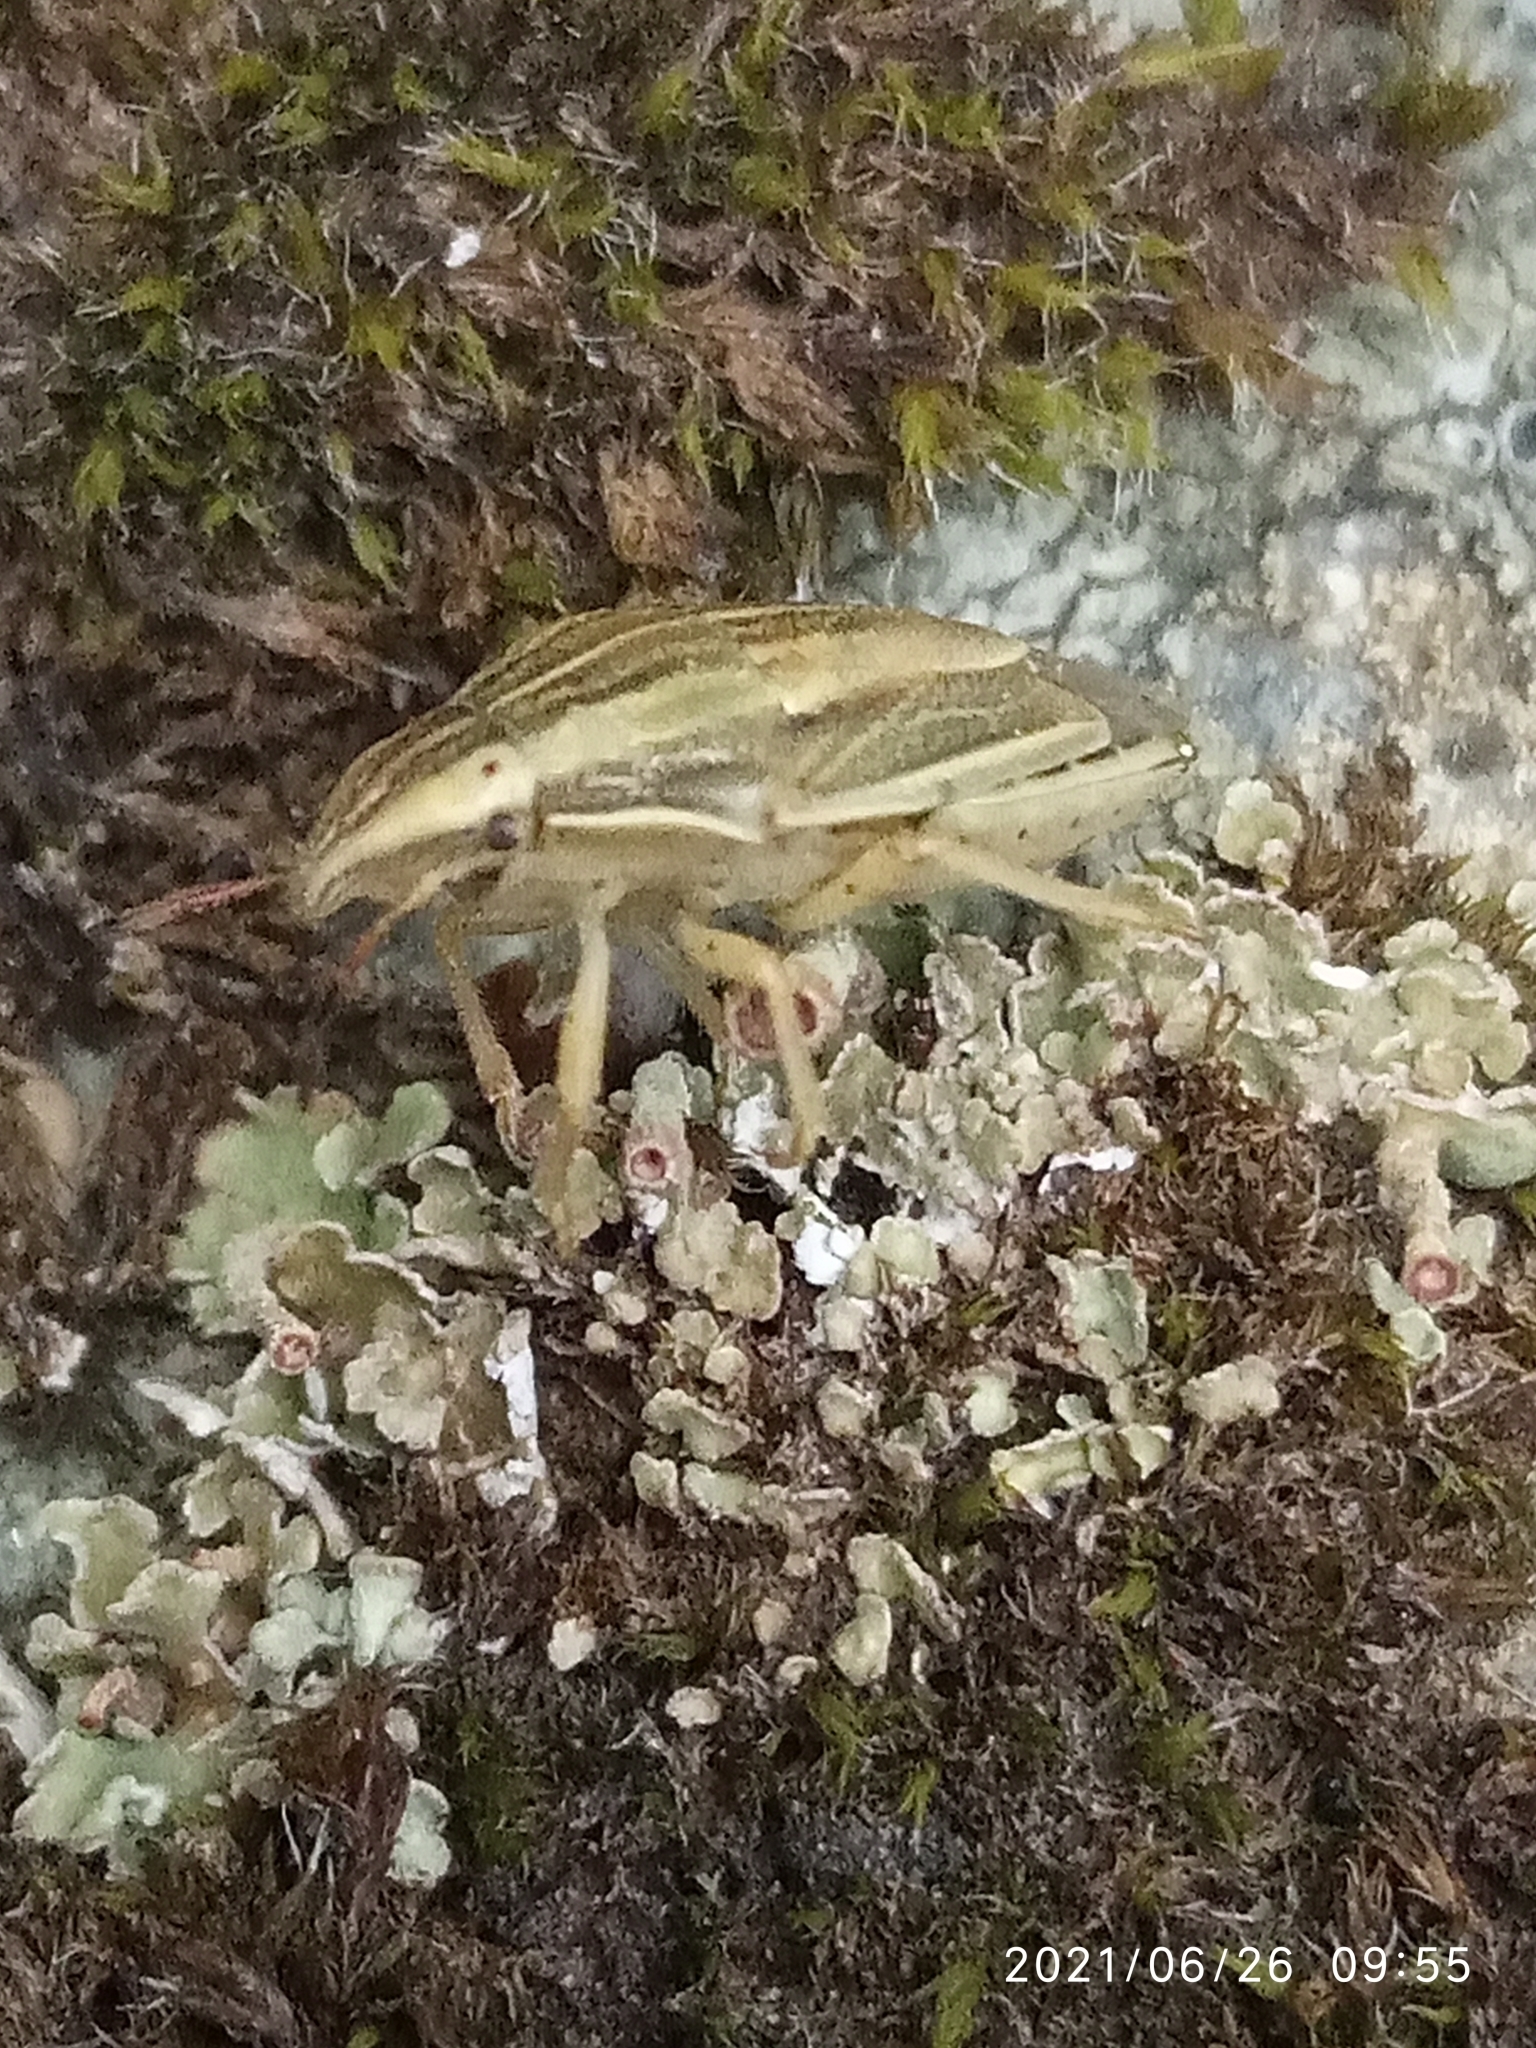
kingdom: Animalia
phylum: Arthropoda
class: Insecta
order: Hemiptera
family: Pentatomidae
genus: Aelia
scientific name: Aelia acuminata
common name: Bishop's mitre
